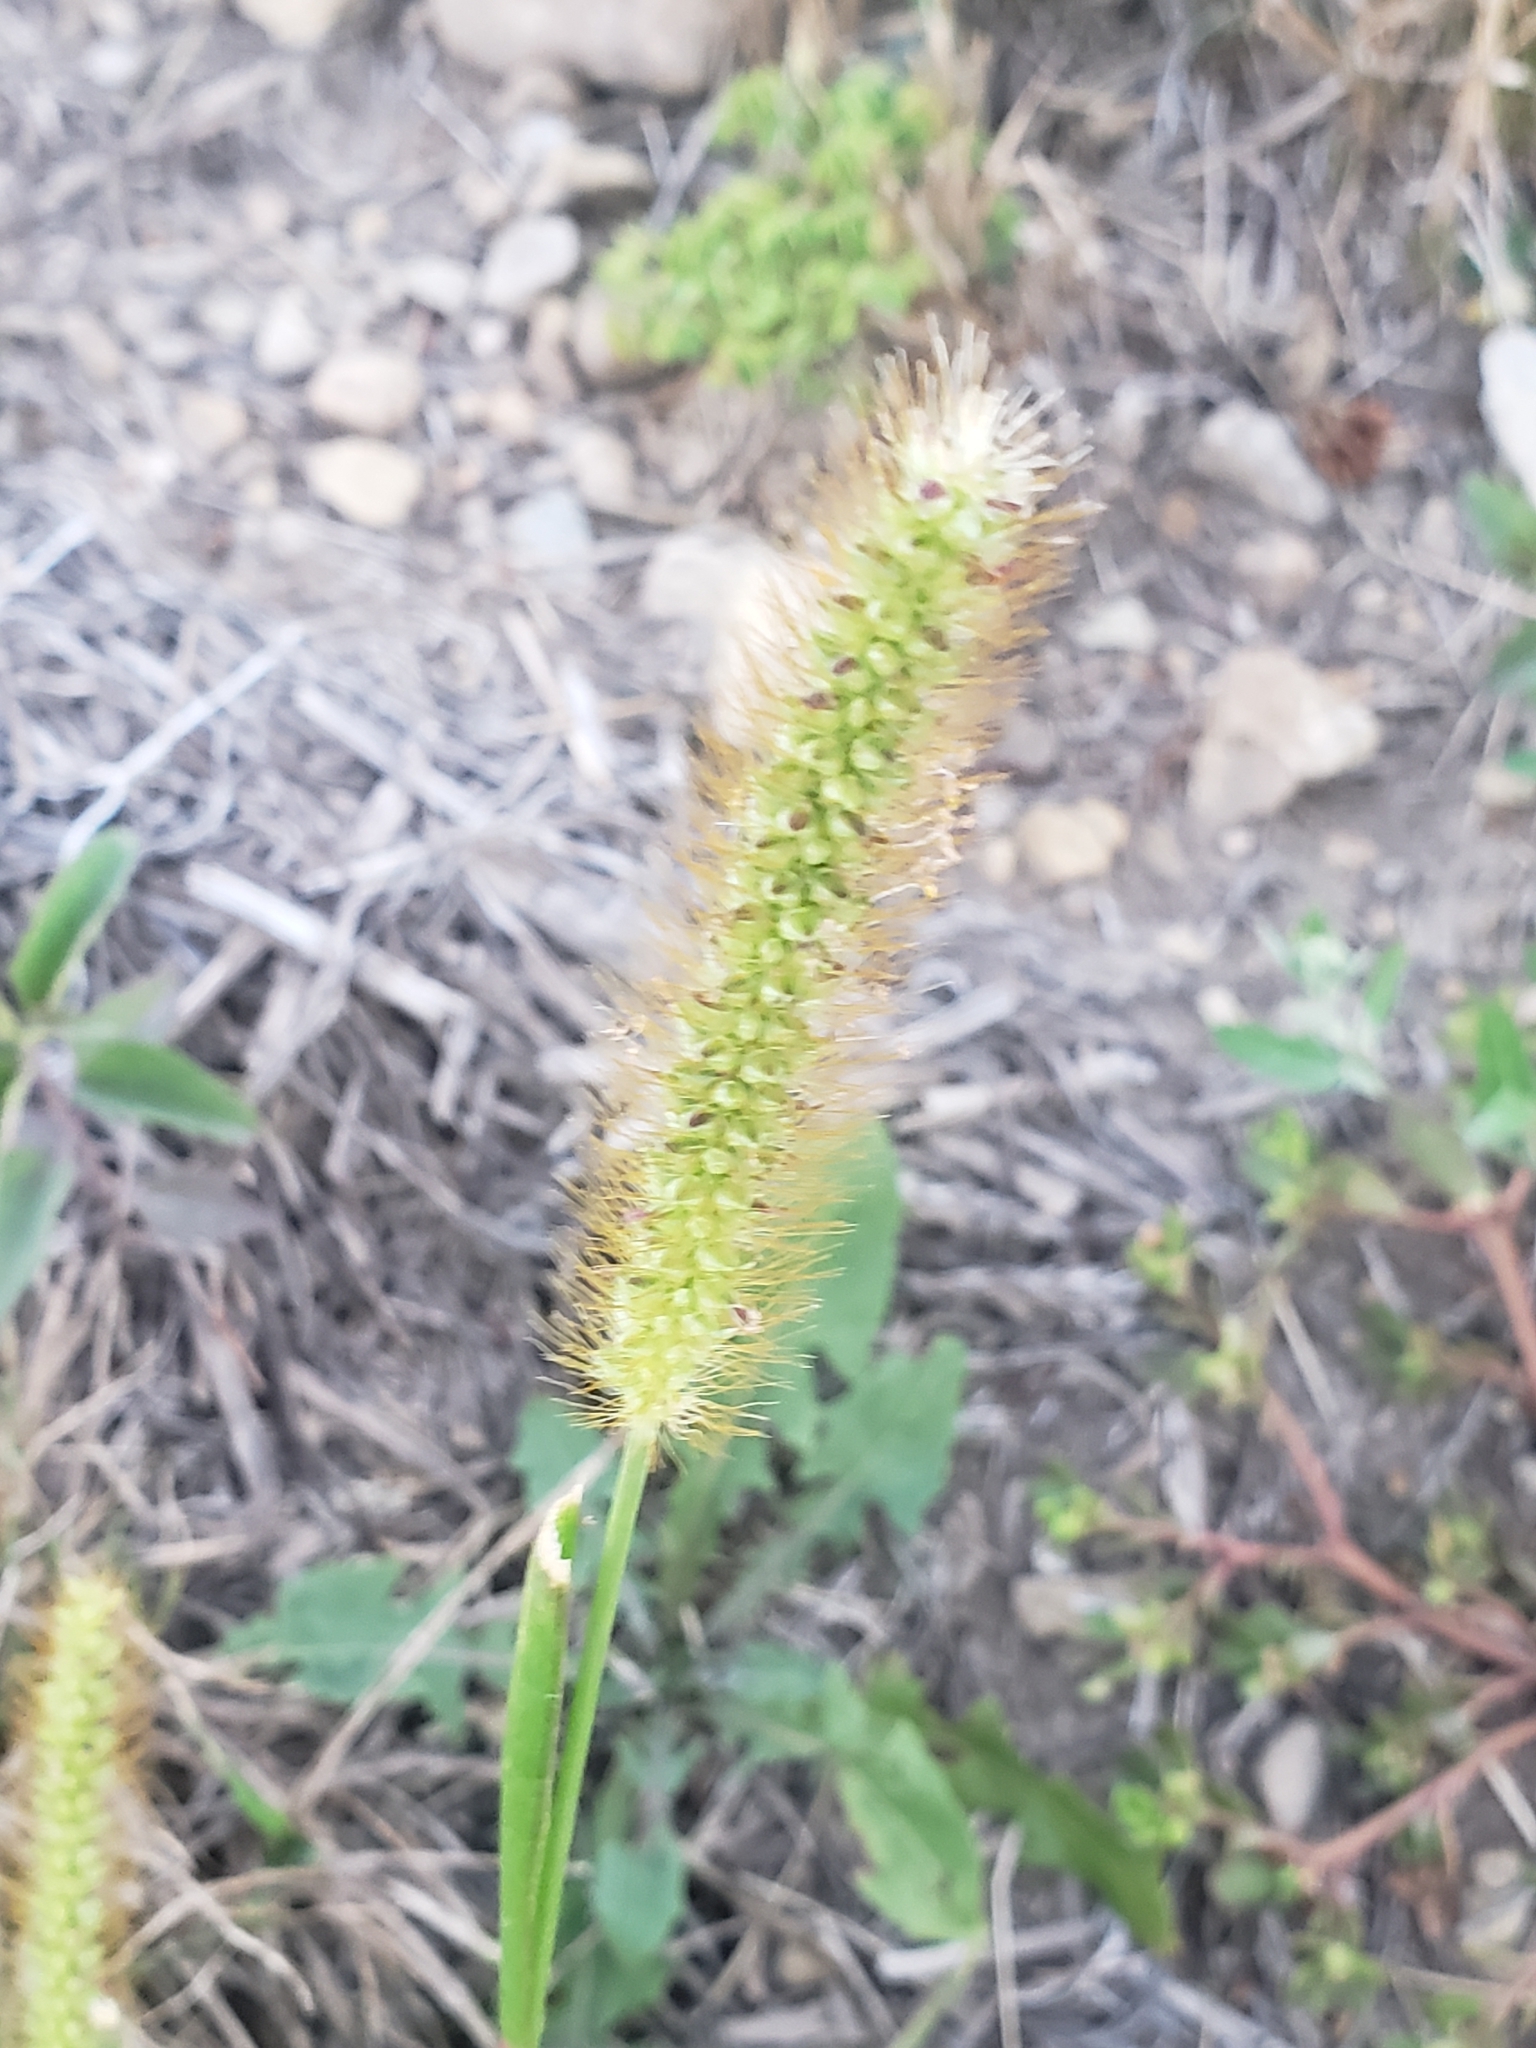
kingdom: Plantae
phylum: Tracheophyta
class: Liliopsida
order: Poales
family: Poaceae
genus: Setaria
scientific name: Setaria pumila
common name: Yellow bristle-grass
